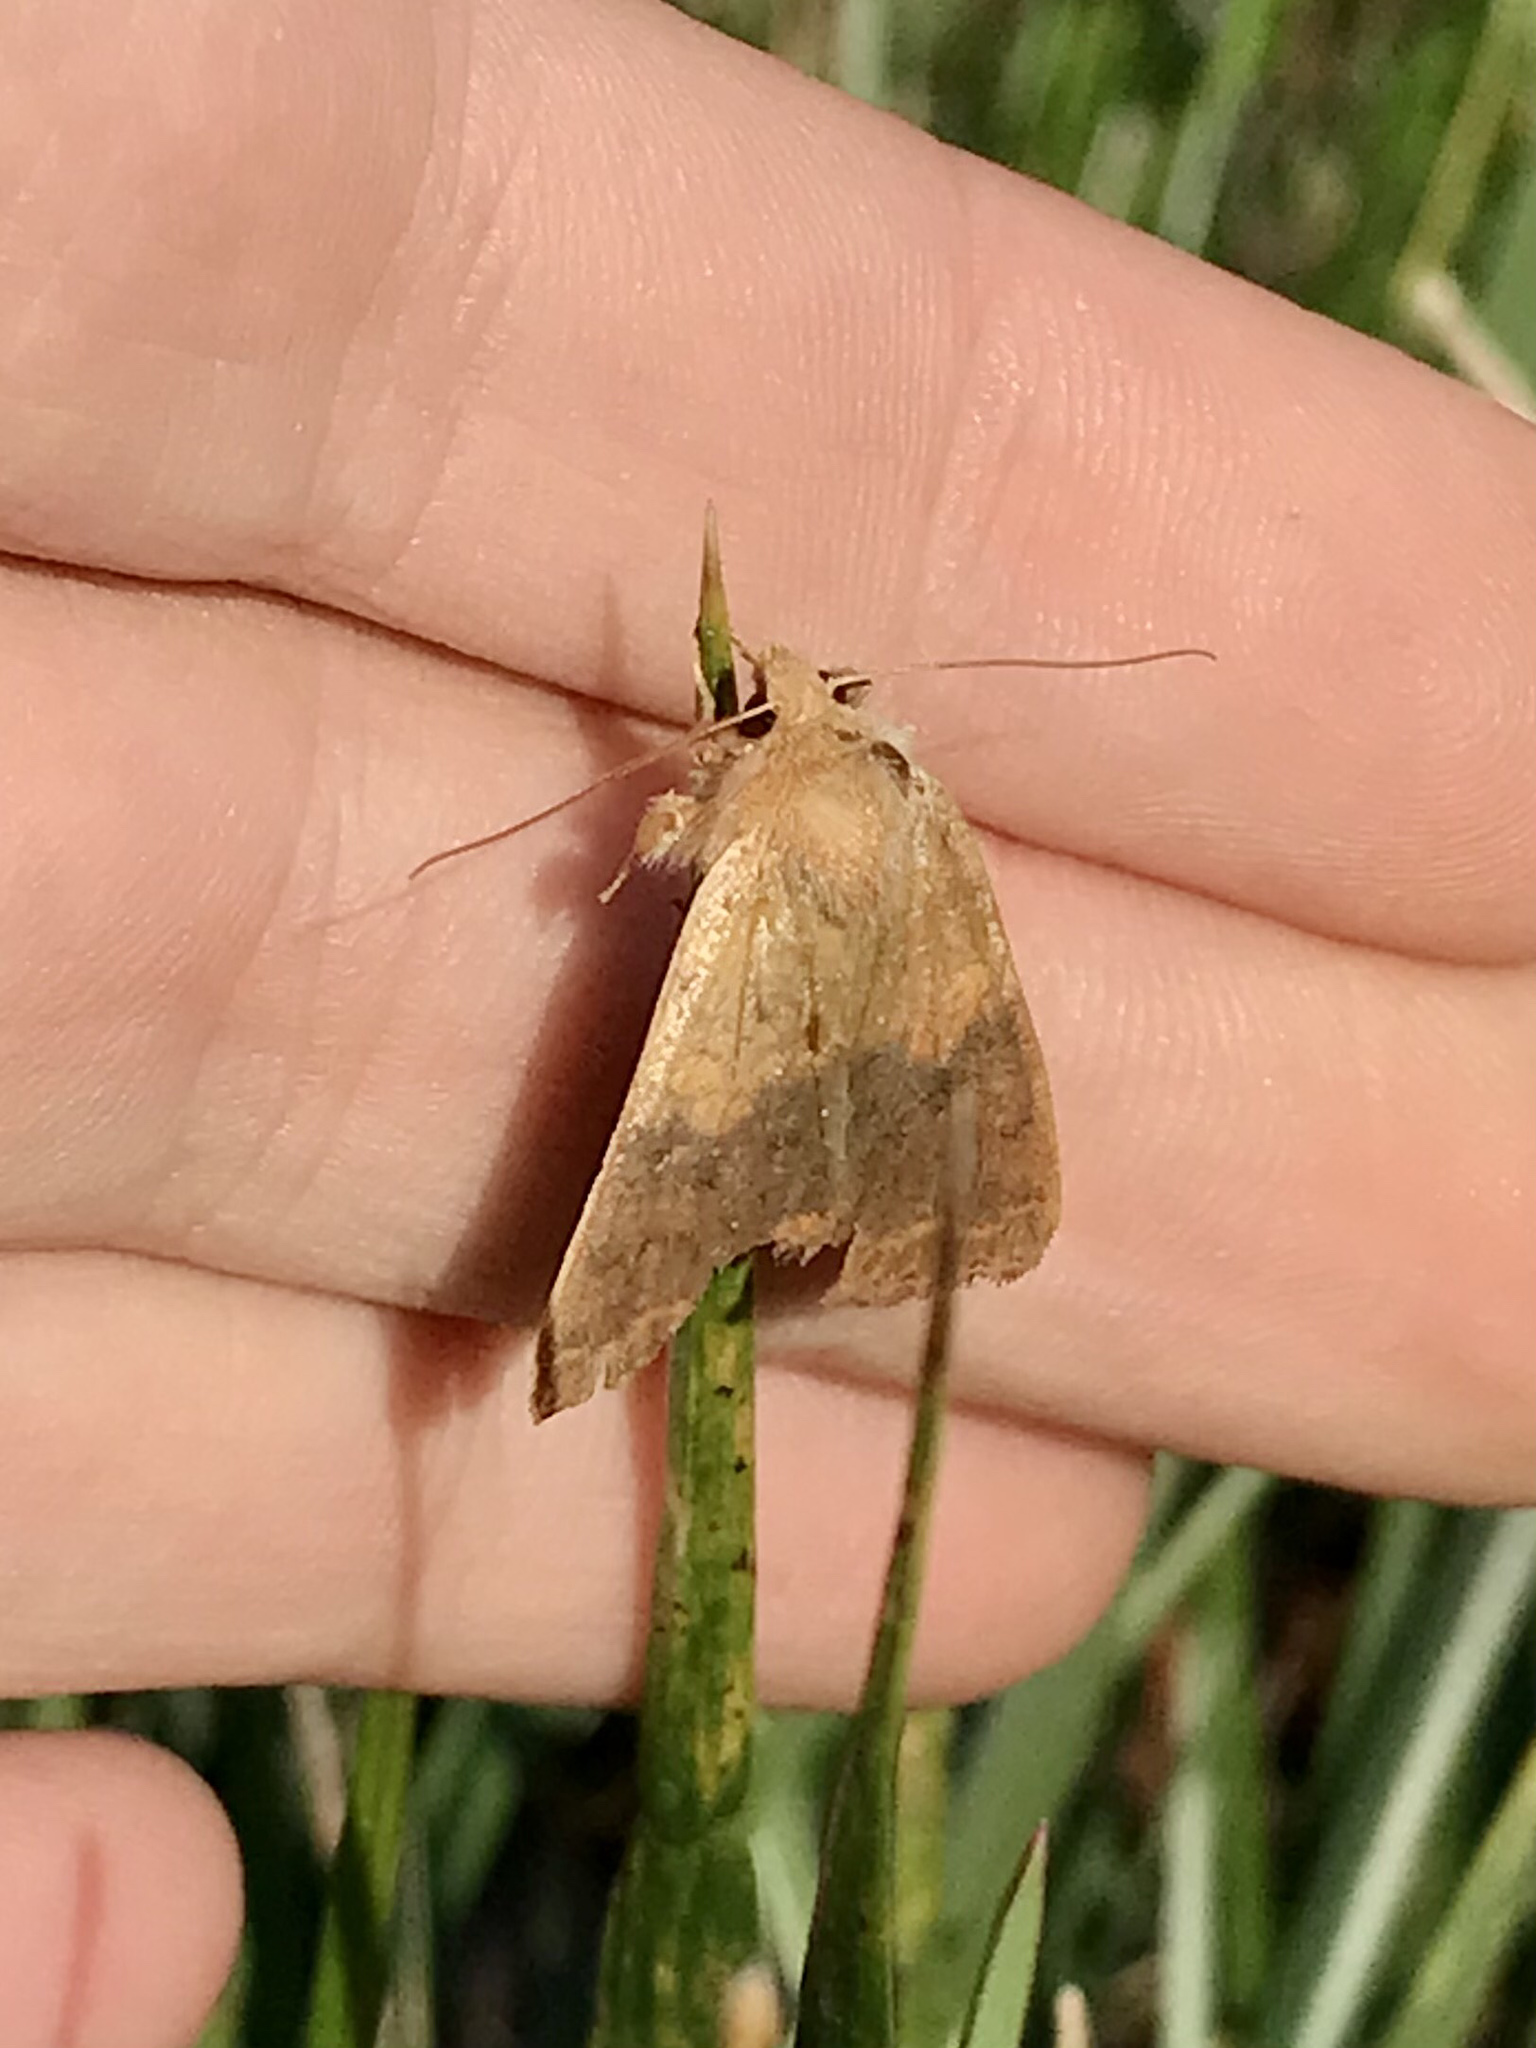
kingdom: Animalia
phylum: Arthropoda
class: Insecta
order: Lepidoptera
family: Noctuidae
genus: Agrochola
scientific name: Agrochola bicolorago
